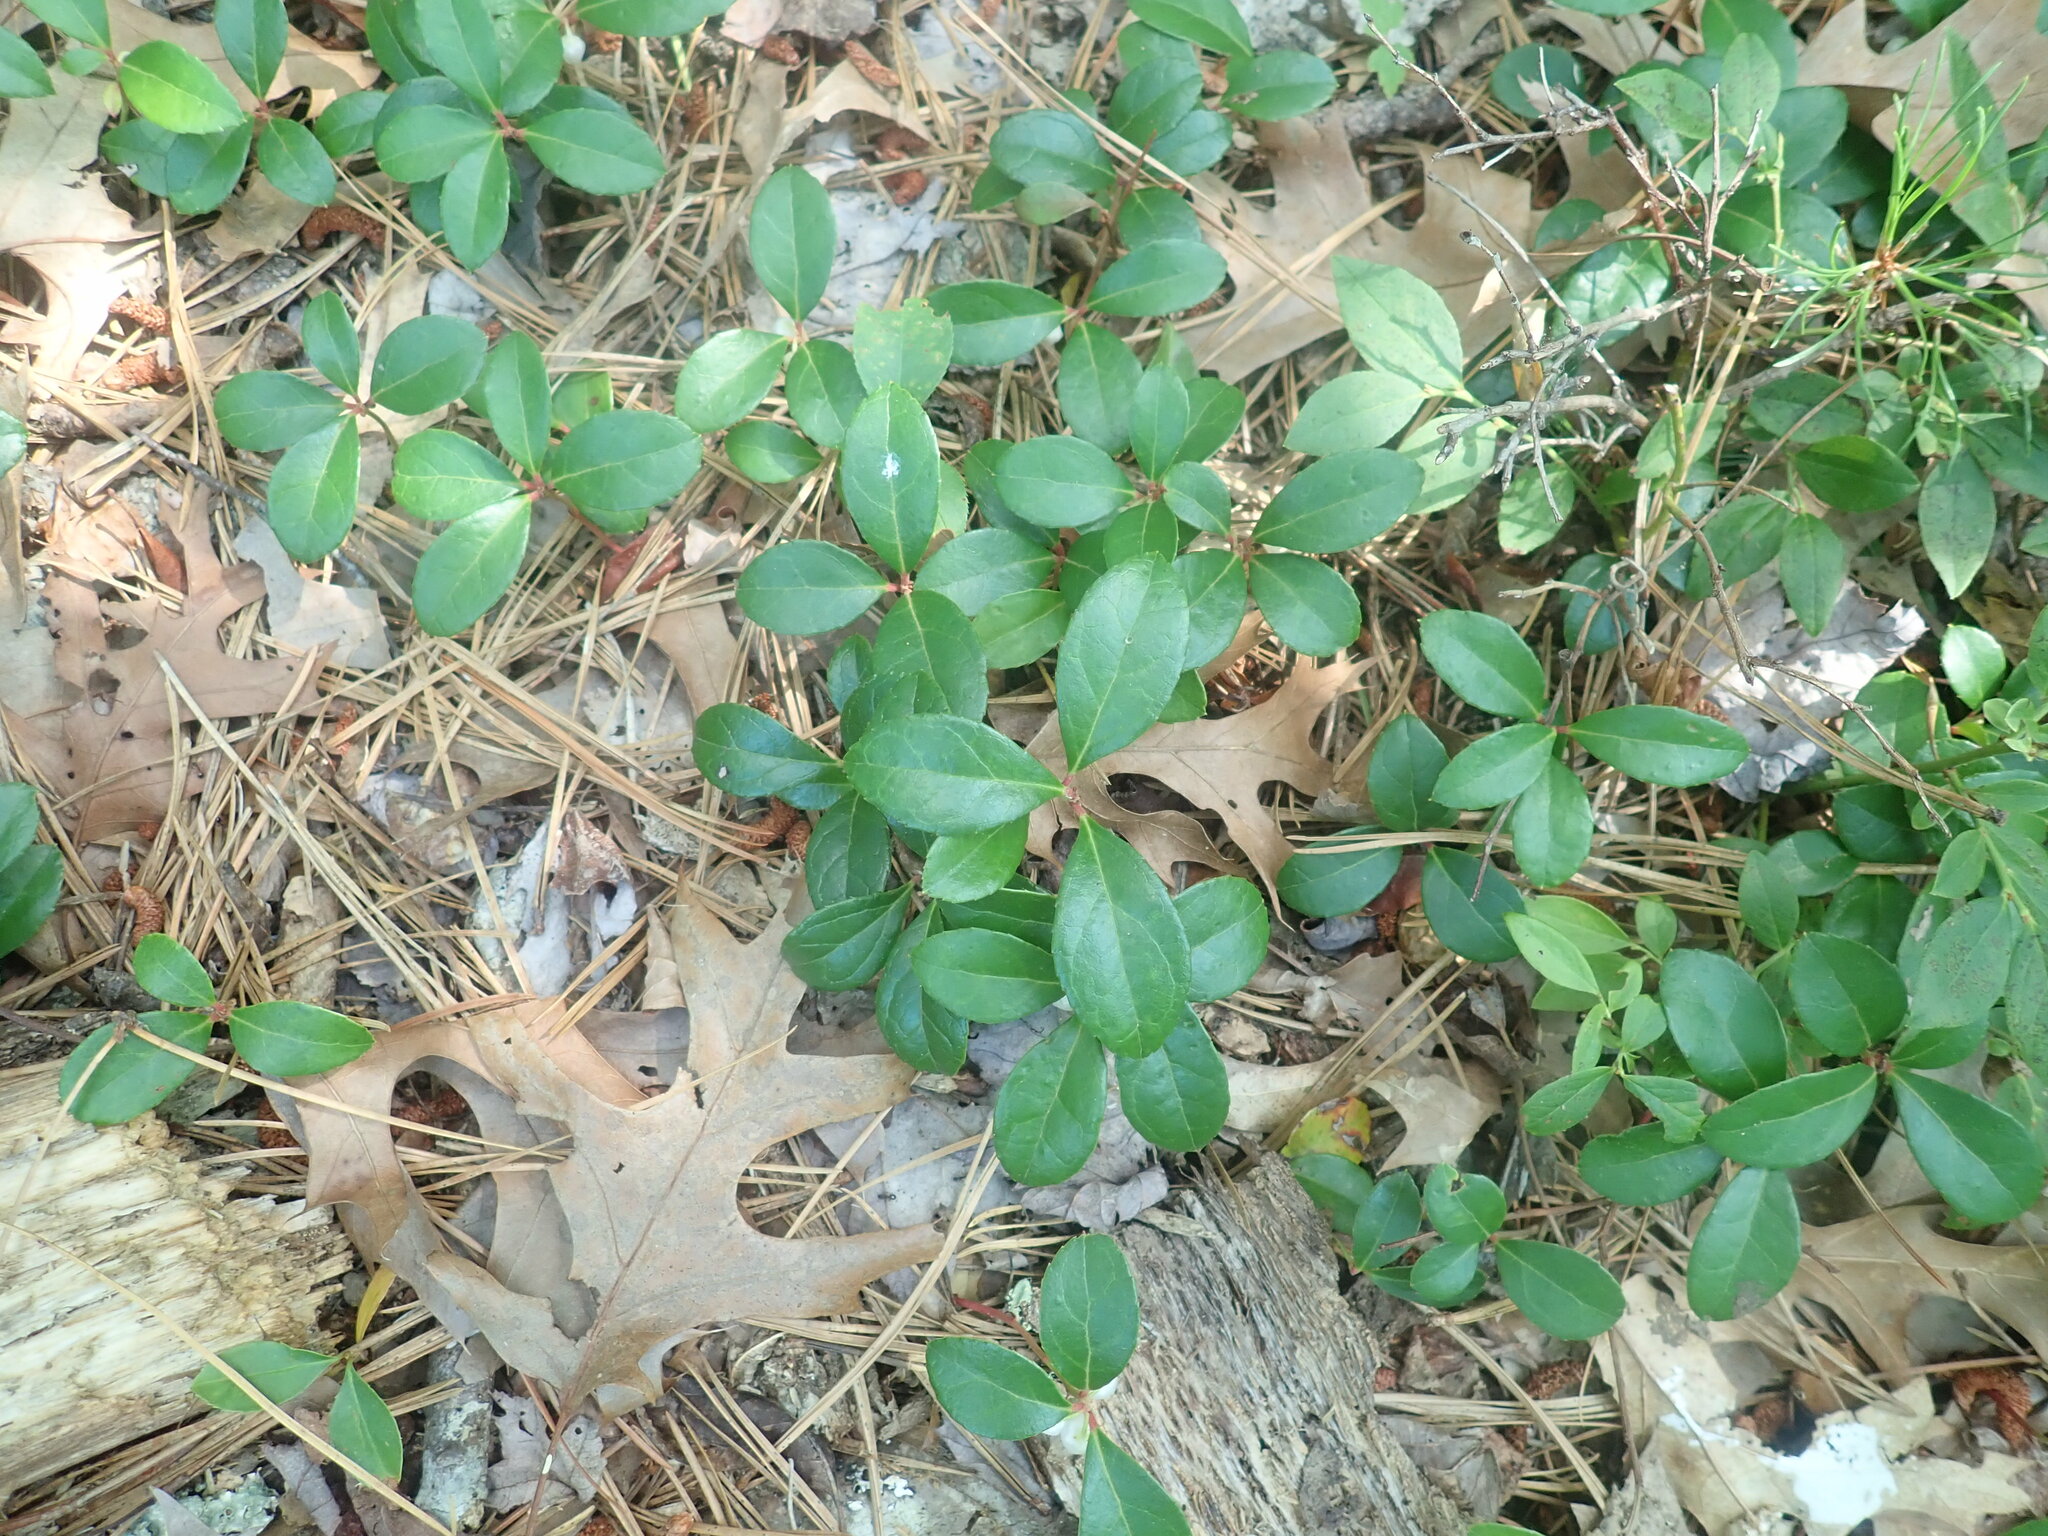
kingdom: Plantae
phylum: Tracheophyta
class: Magnoliopsida
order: Ericales
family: Ericaceae
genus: Gaultheria
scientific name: Gaultheria procumbens
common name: Checkerberry
